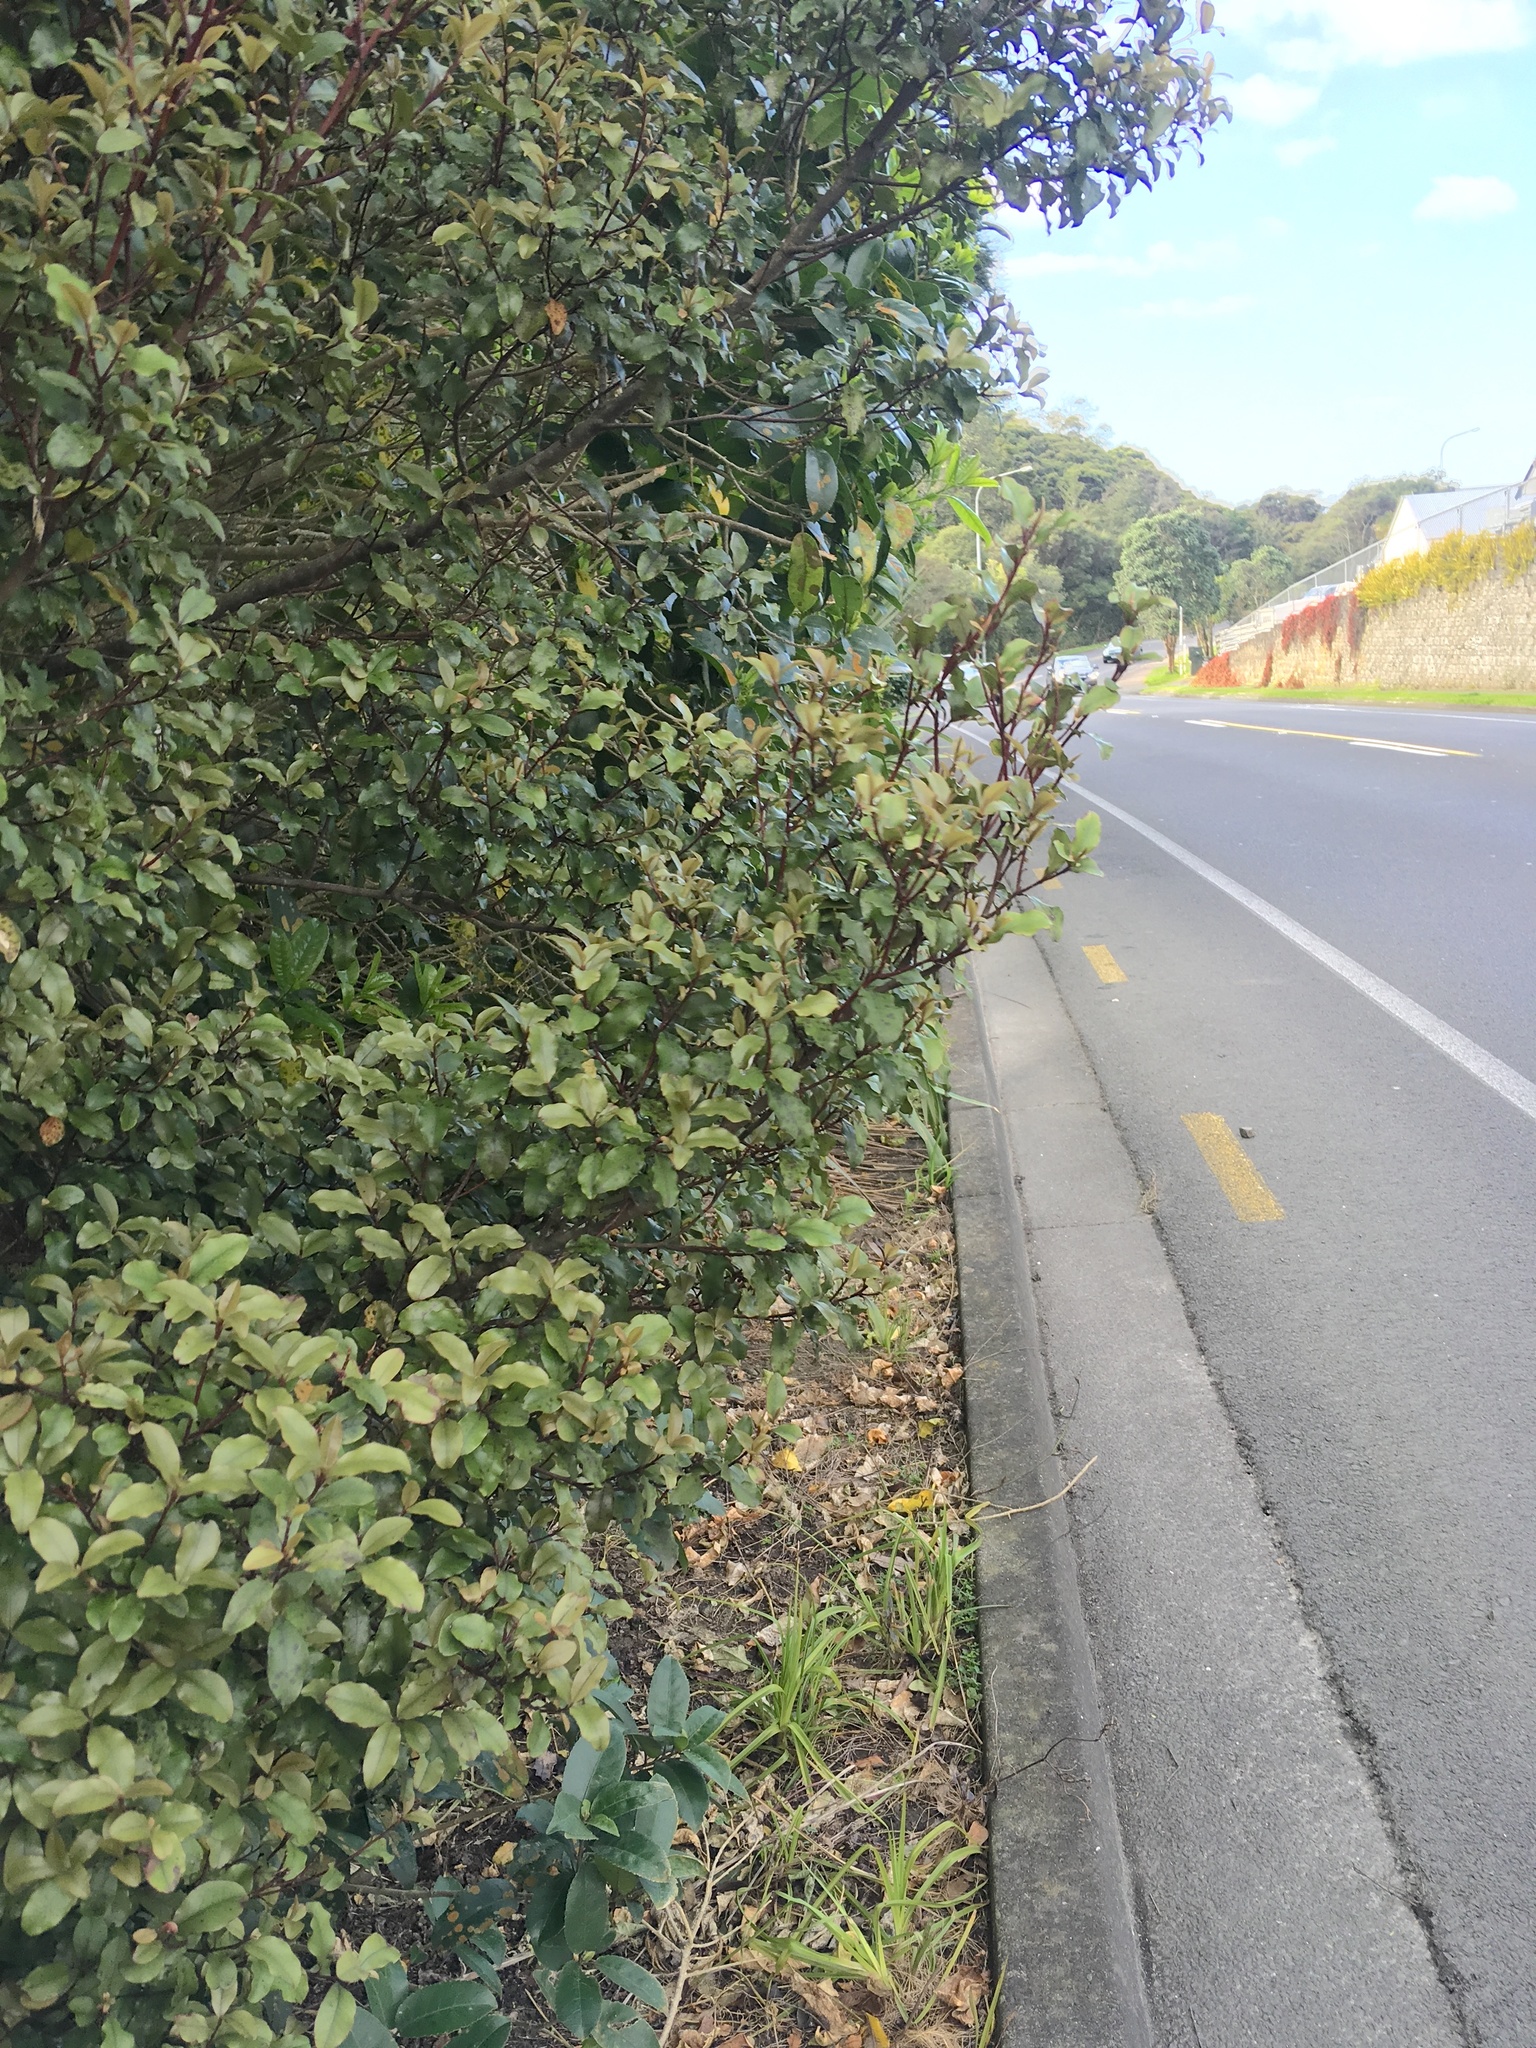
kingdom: Plantae
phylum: Tracheophyta
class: Magnoliopsida
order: Ericales
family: Primulaceae
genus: Myrsine
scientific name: Myrsine australis
